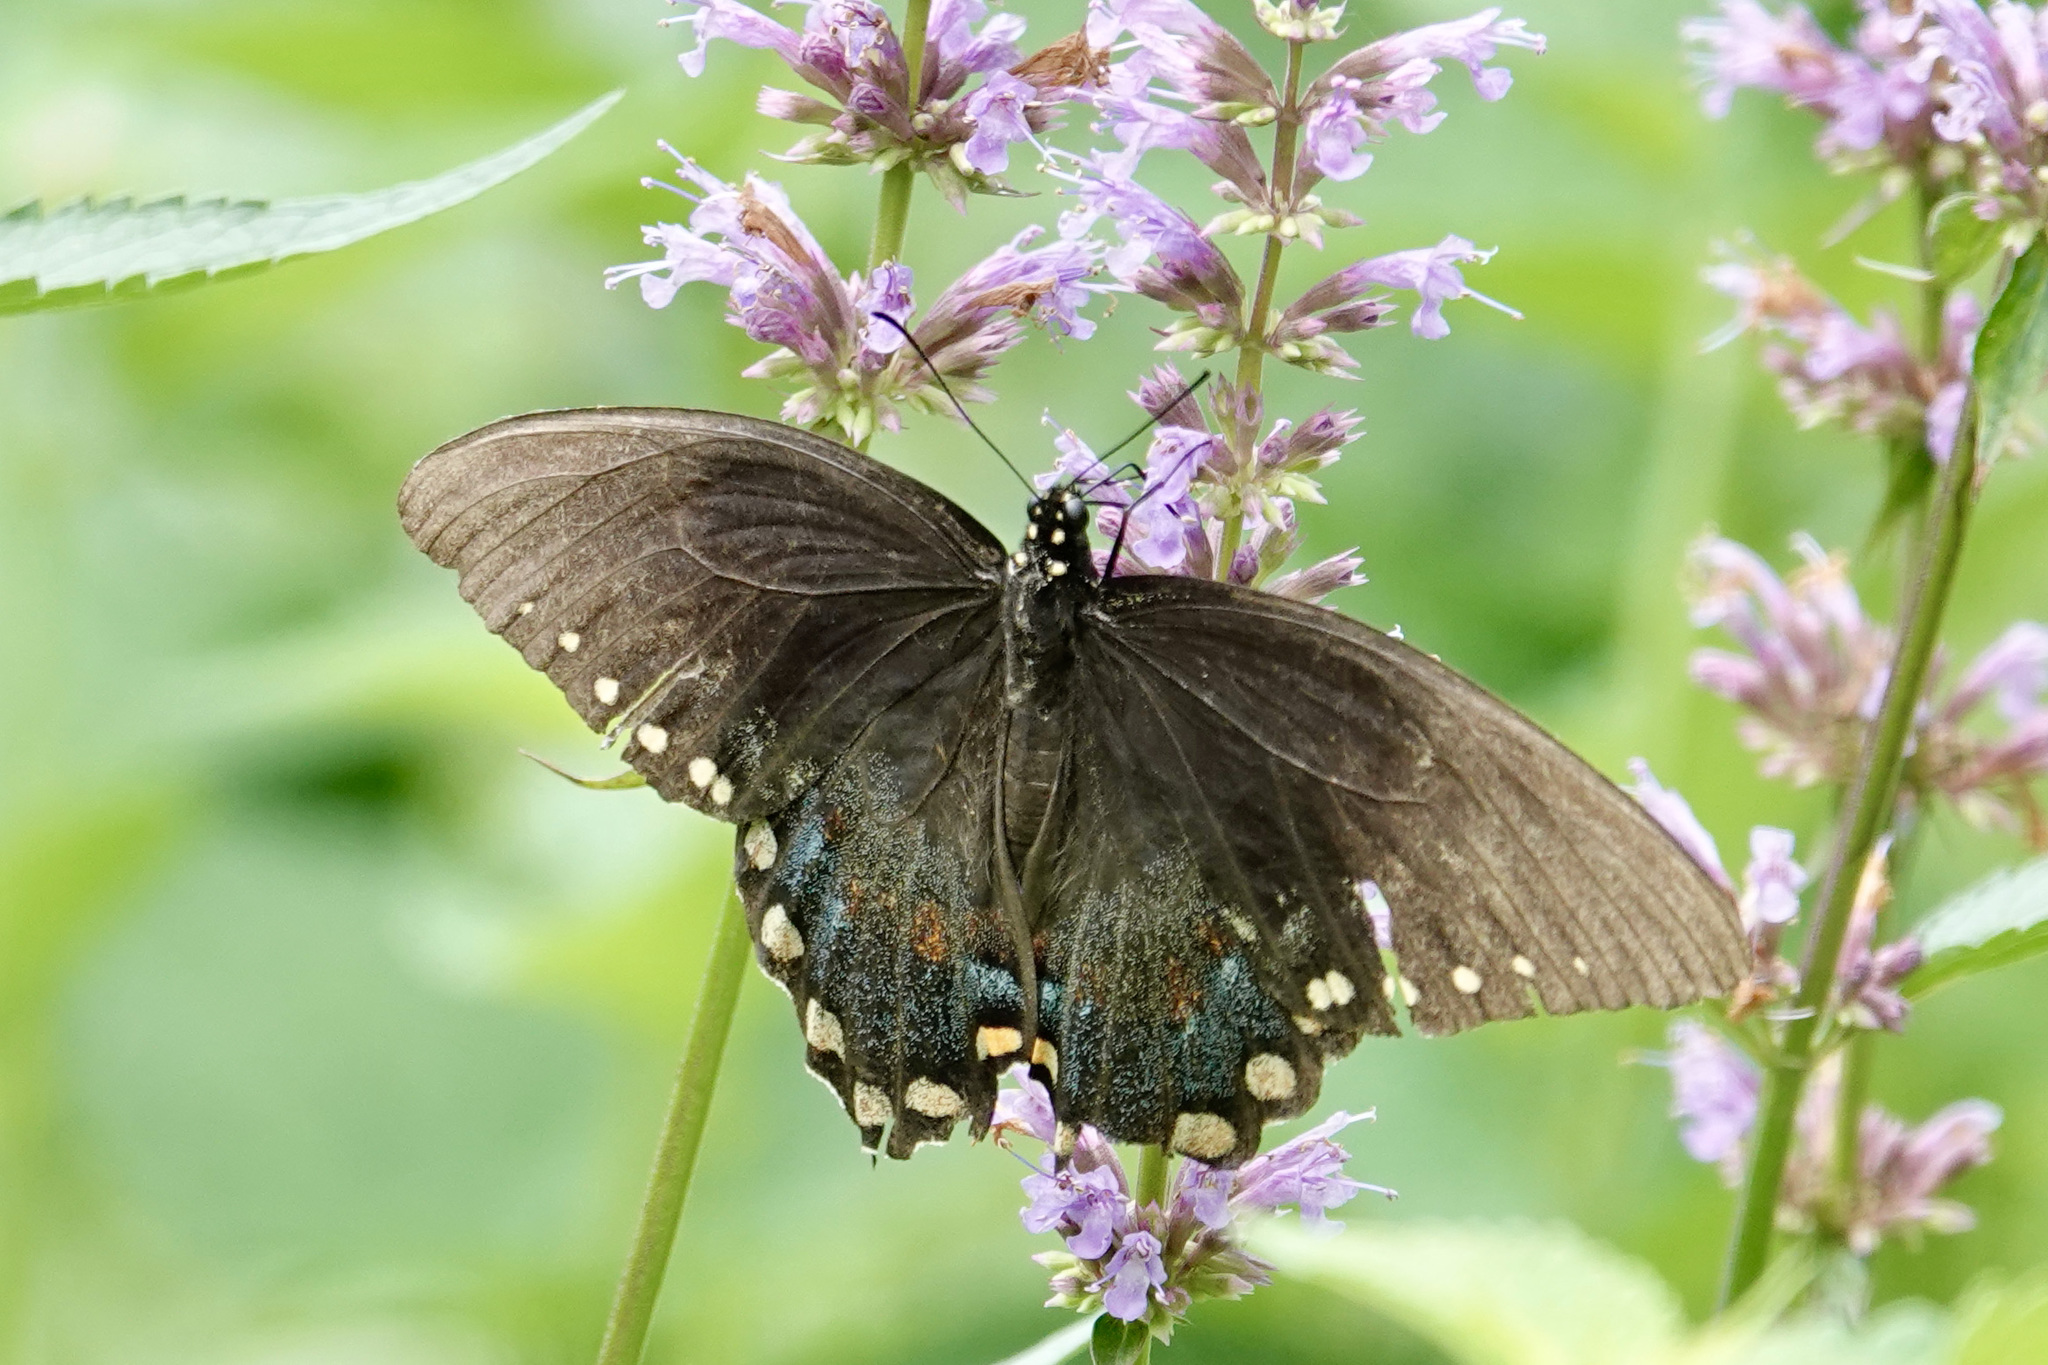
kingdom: Animalia
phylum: Arthropoda
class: Insecta
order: Lepidoptera
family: Papilionidae
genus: Papilio
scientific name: Papilio troilus
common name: Spicebush swallowtail
